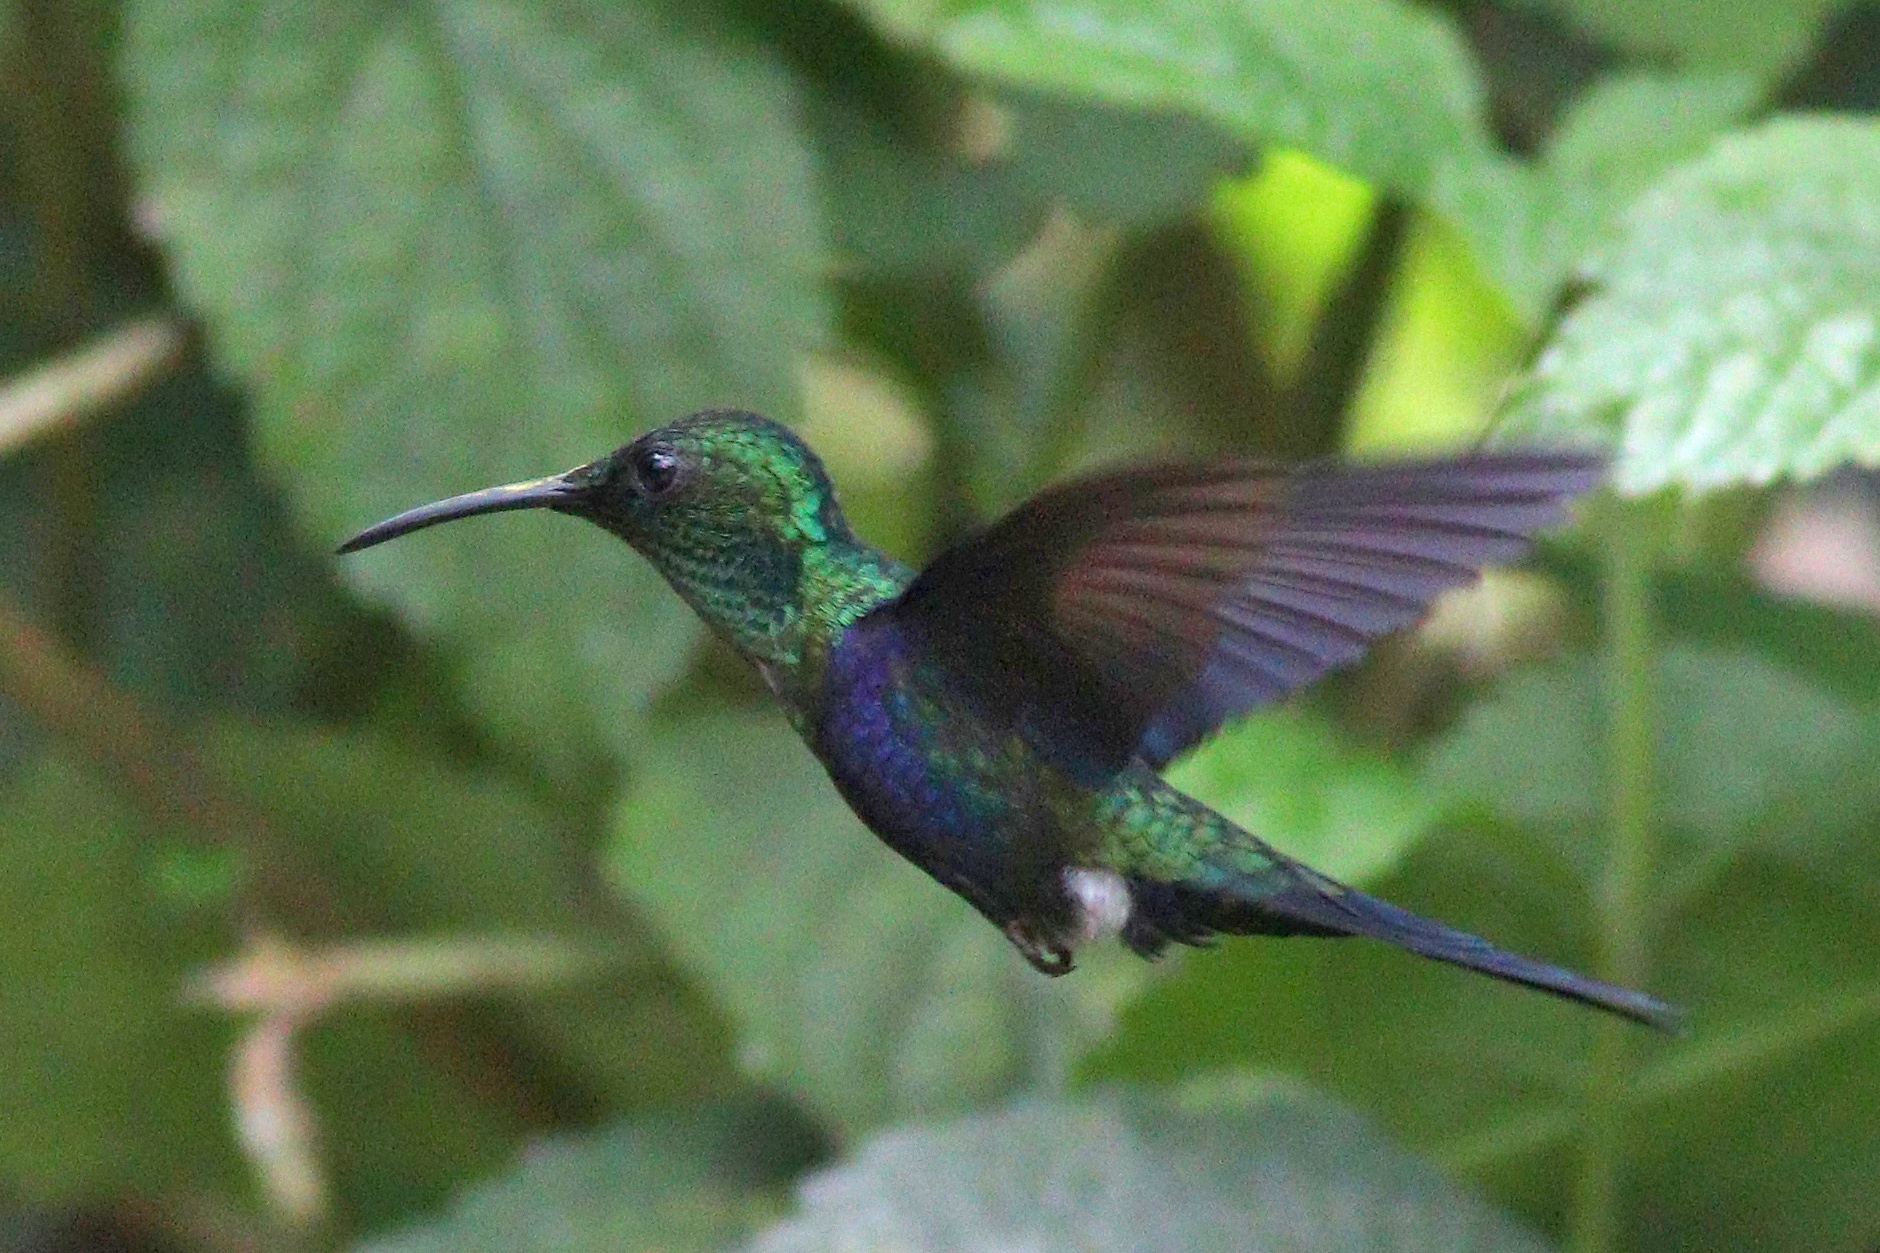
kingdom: Animalia
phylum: Chordata
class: Aves
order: Apodiformes
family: Trochilidae
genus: Thalurania
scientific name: Thalurania furcata
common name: Fork-tailed woodnymph
